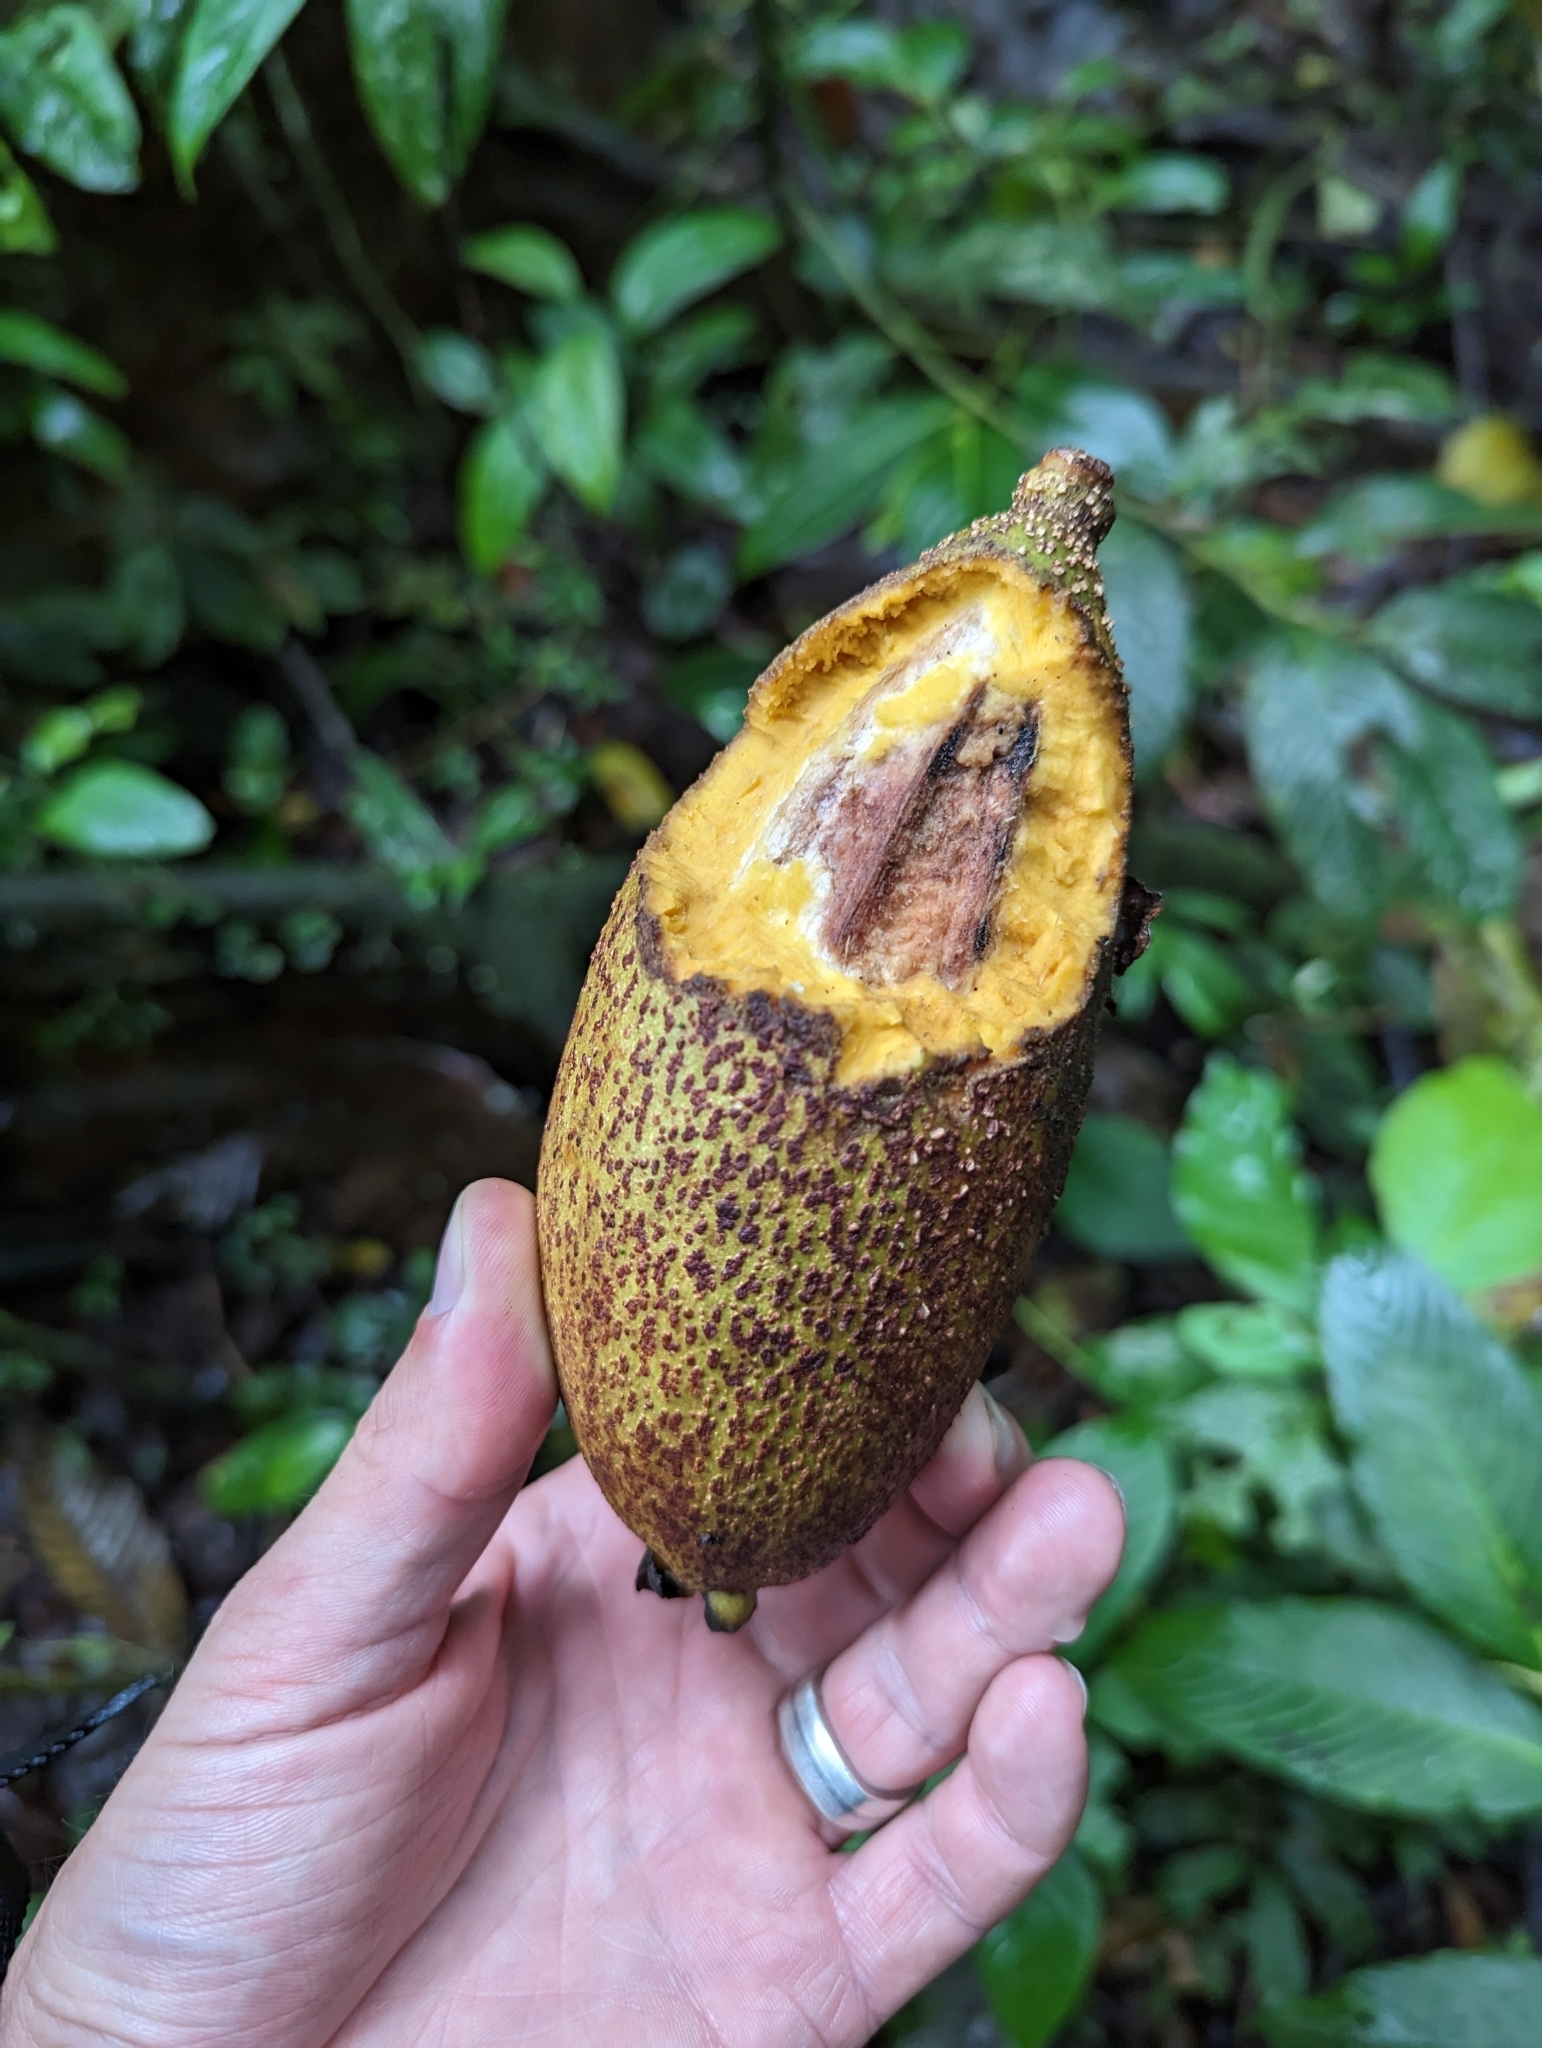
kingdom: Plantae
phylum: Tracheophyta
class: Magnoliopsida
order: Ericales
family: Lecythidaceae
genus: Grias
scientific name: Grias neuberthii
